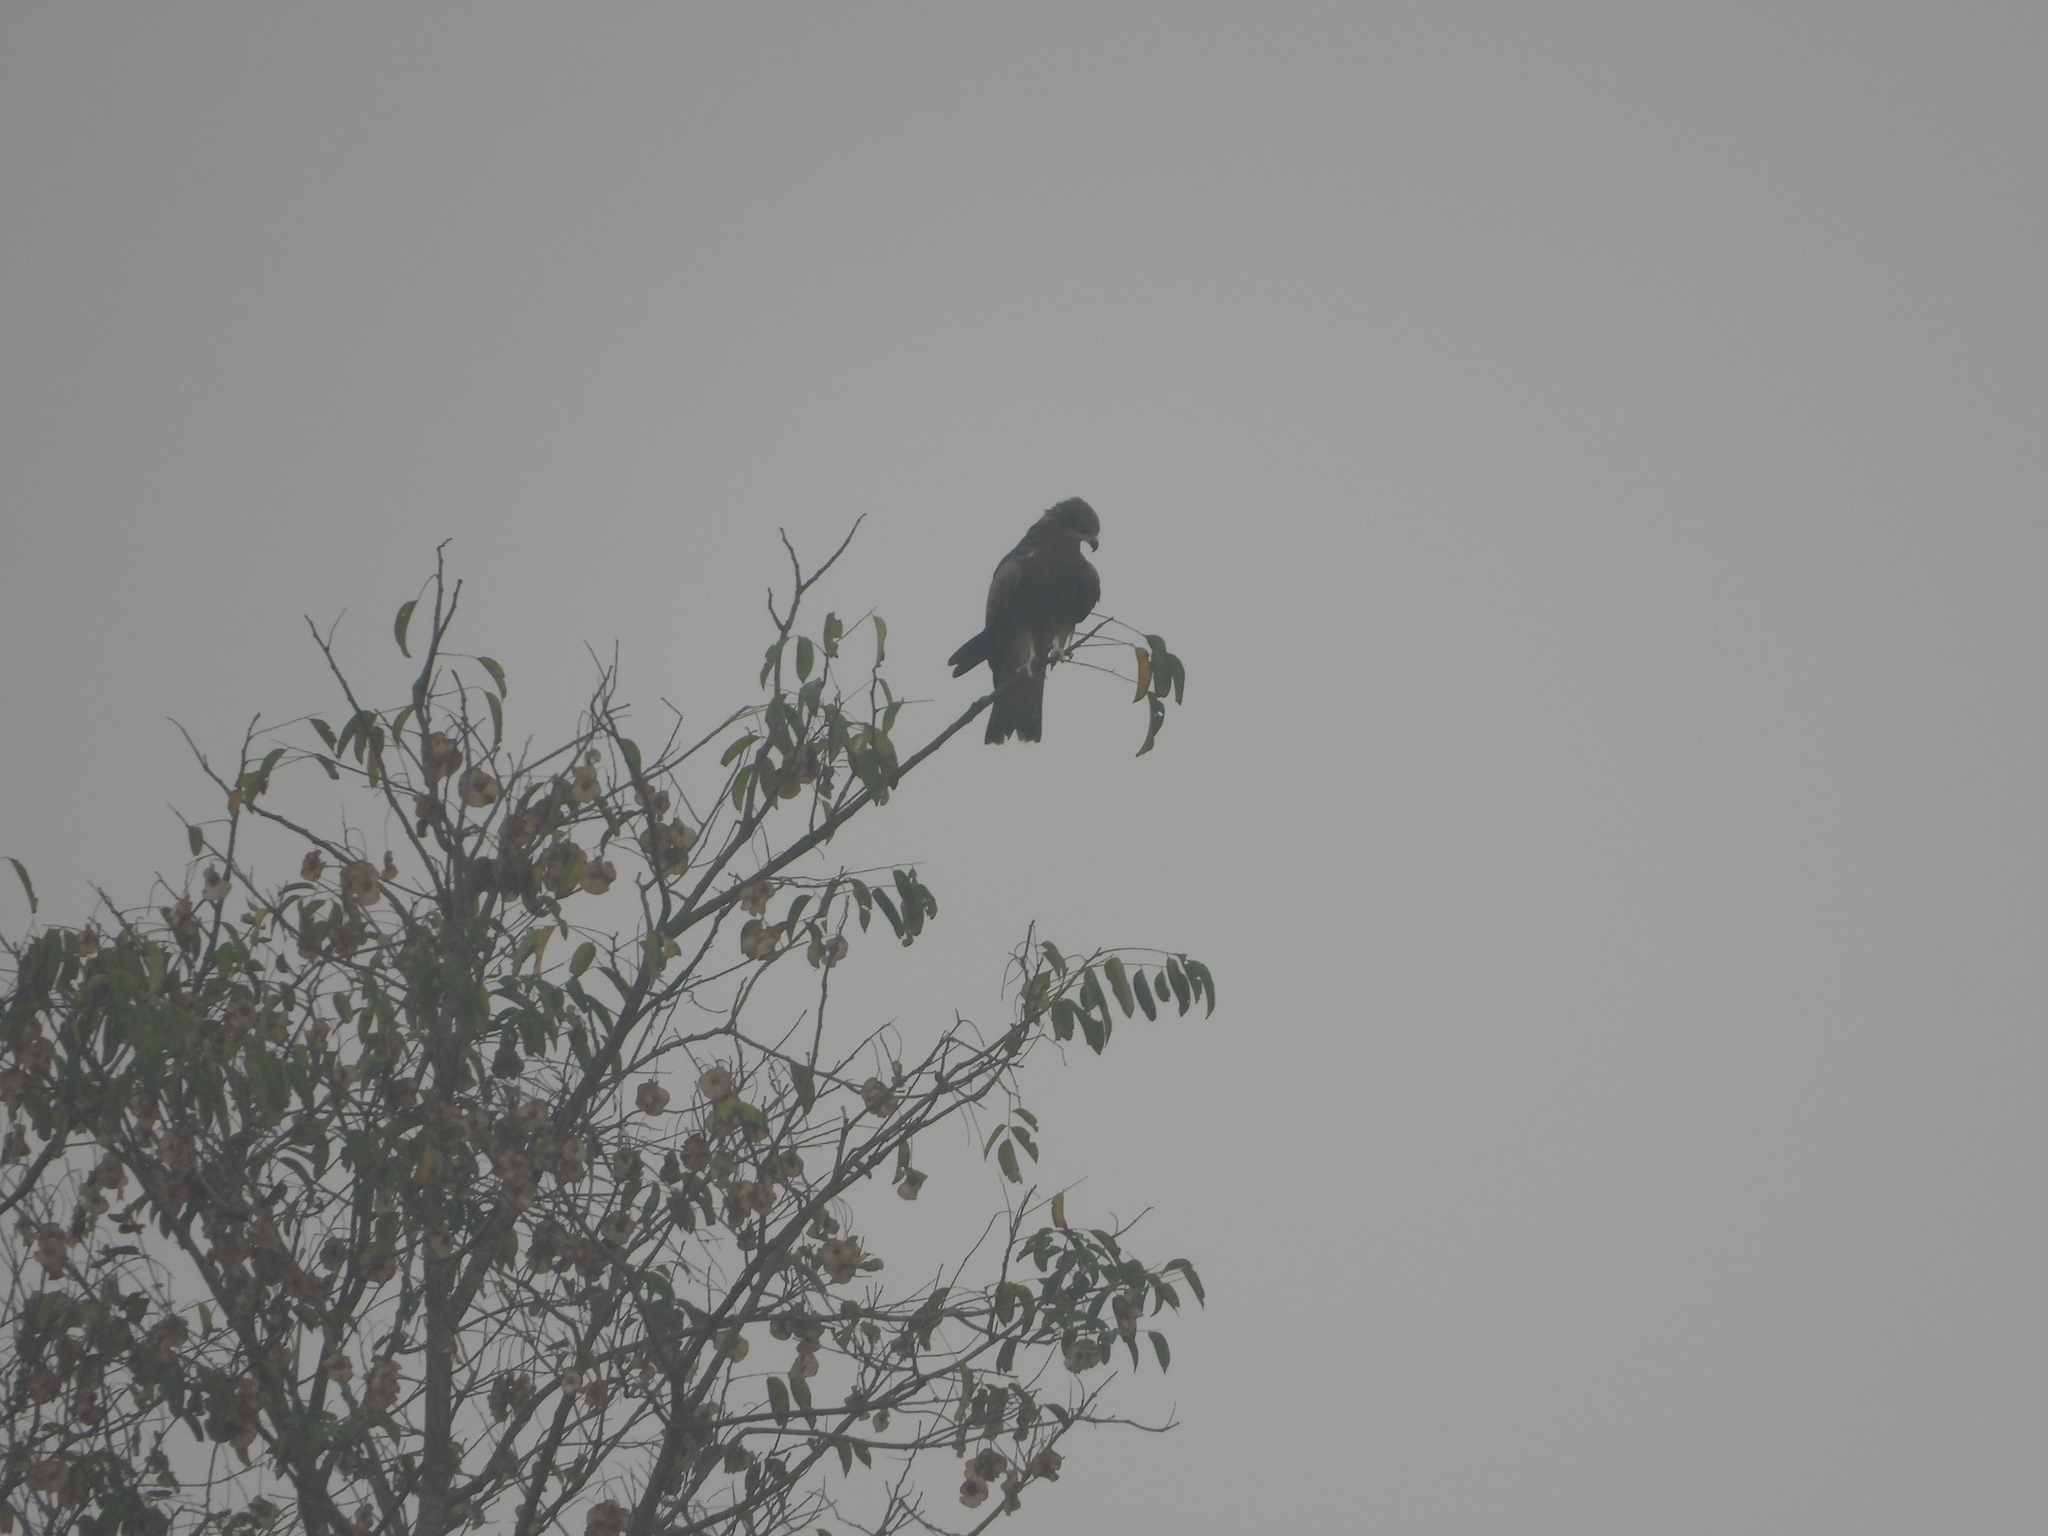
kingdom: Animalia
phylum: Chordata
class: Aves
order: Accipitriformes
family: Accipitridae
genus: Milvus
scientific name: Milvus migrans
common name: Black kite
